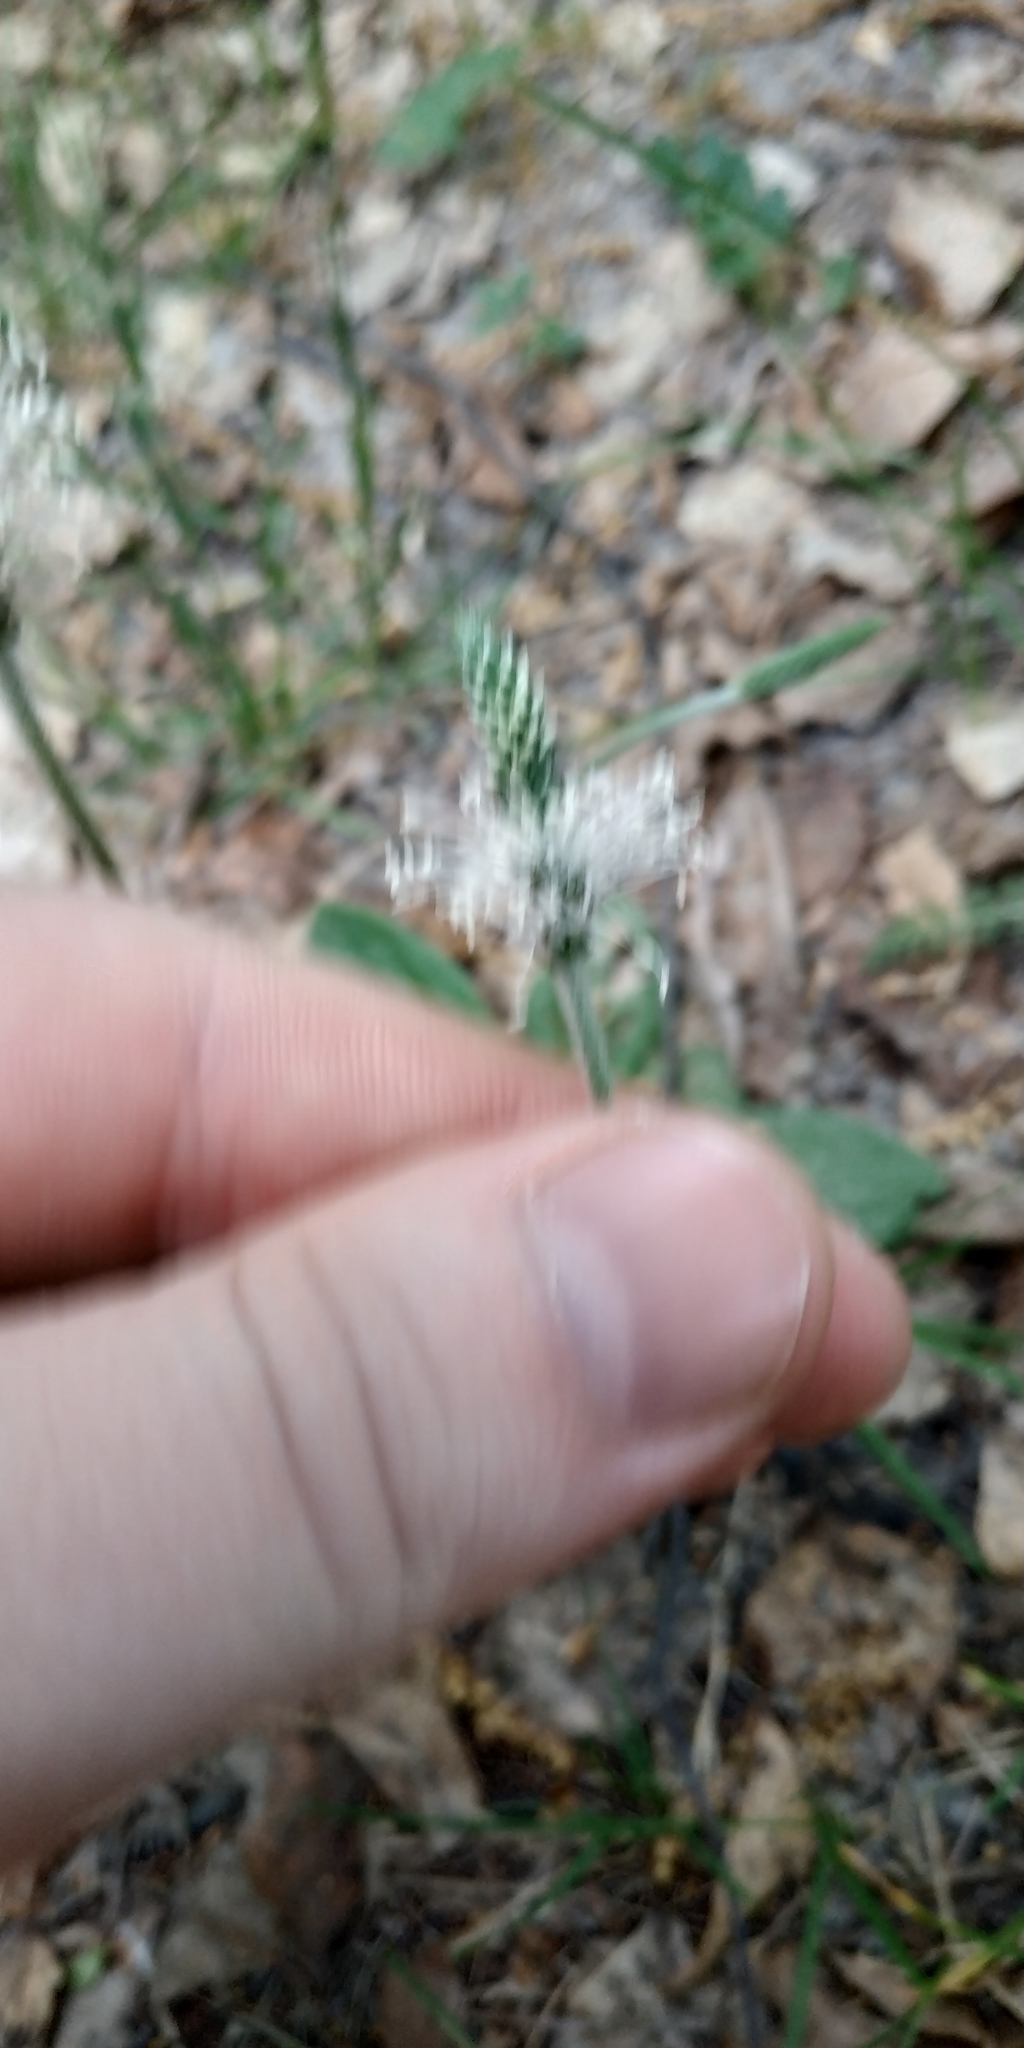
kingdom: Plantae
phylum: Tracheophyta
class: Magnoliopsida
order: Lamiales
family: Plantaginaceae
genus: Plantago
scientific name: Plantago media
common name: Hoary plantain
